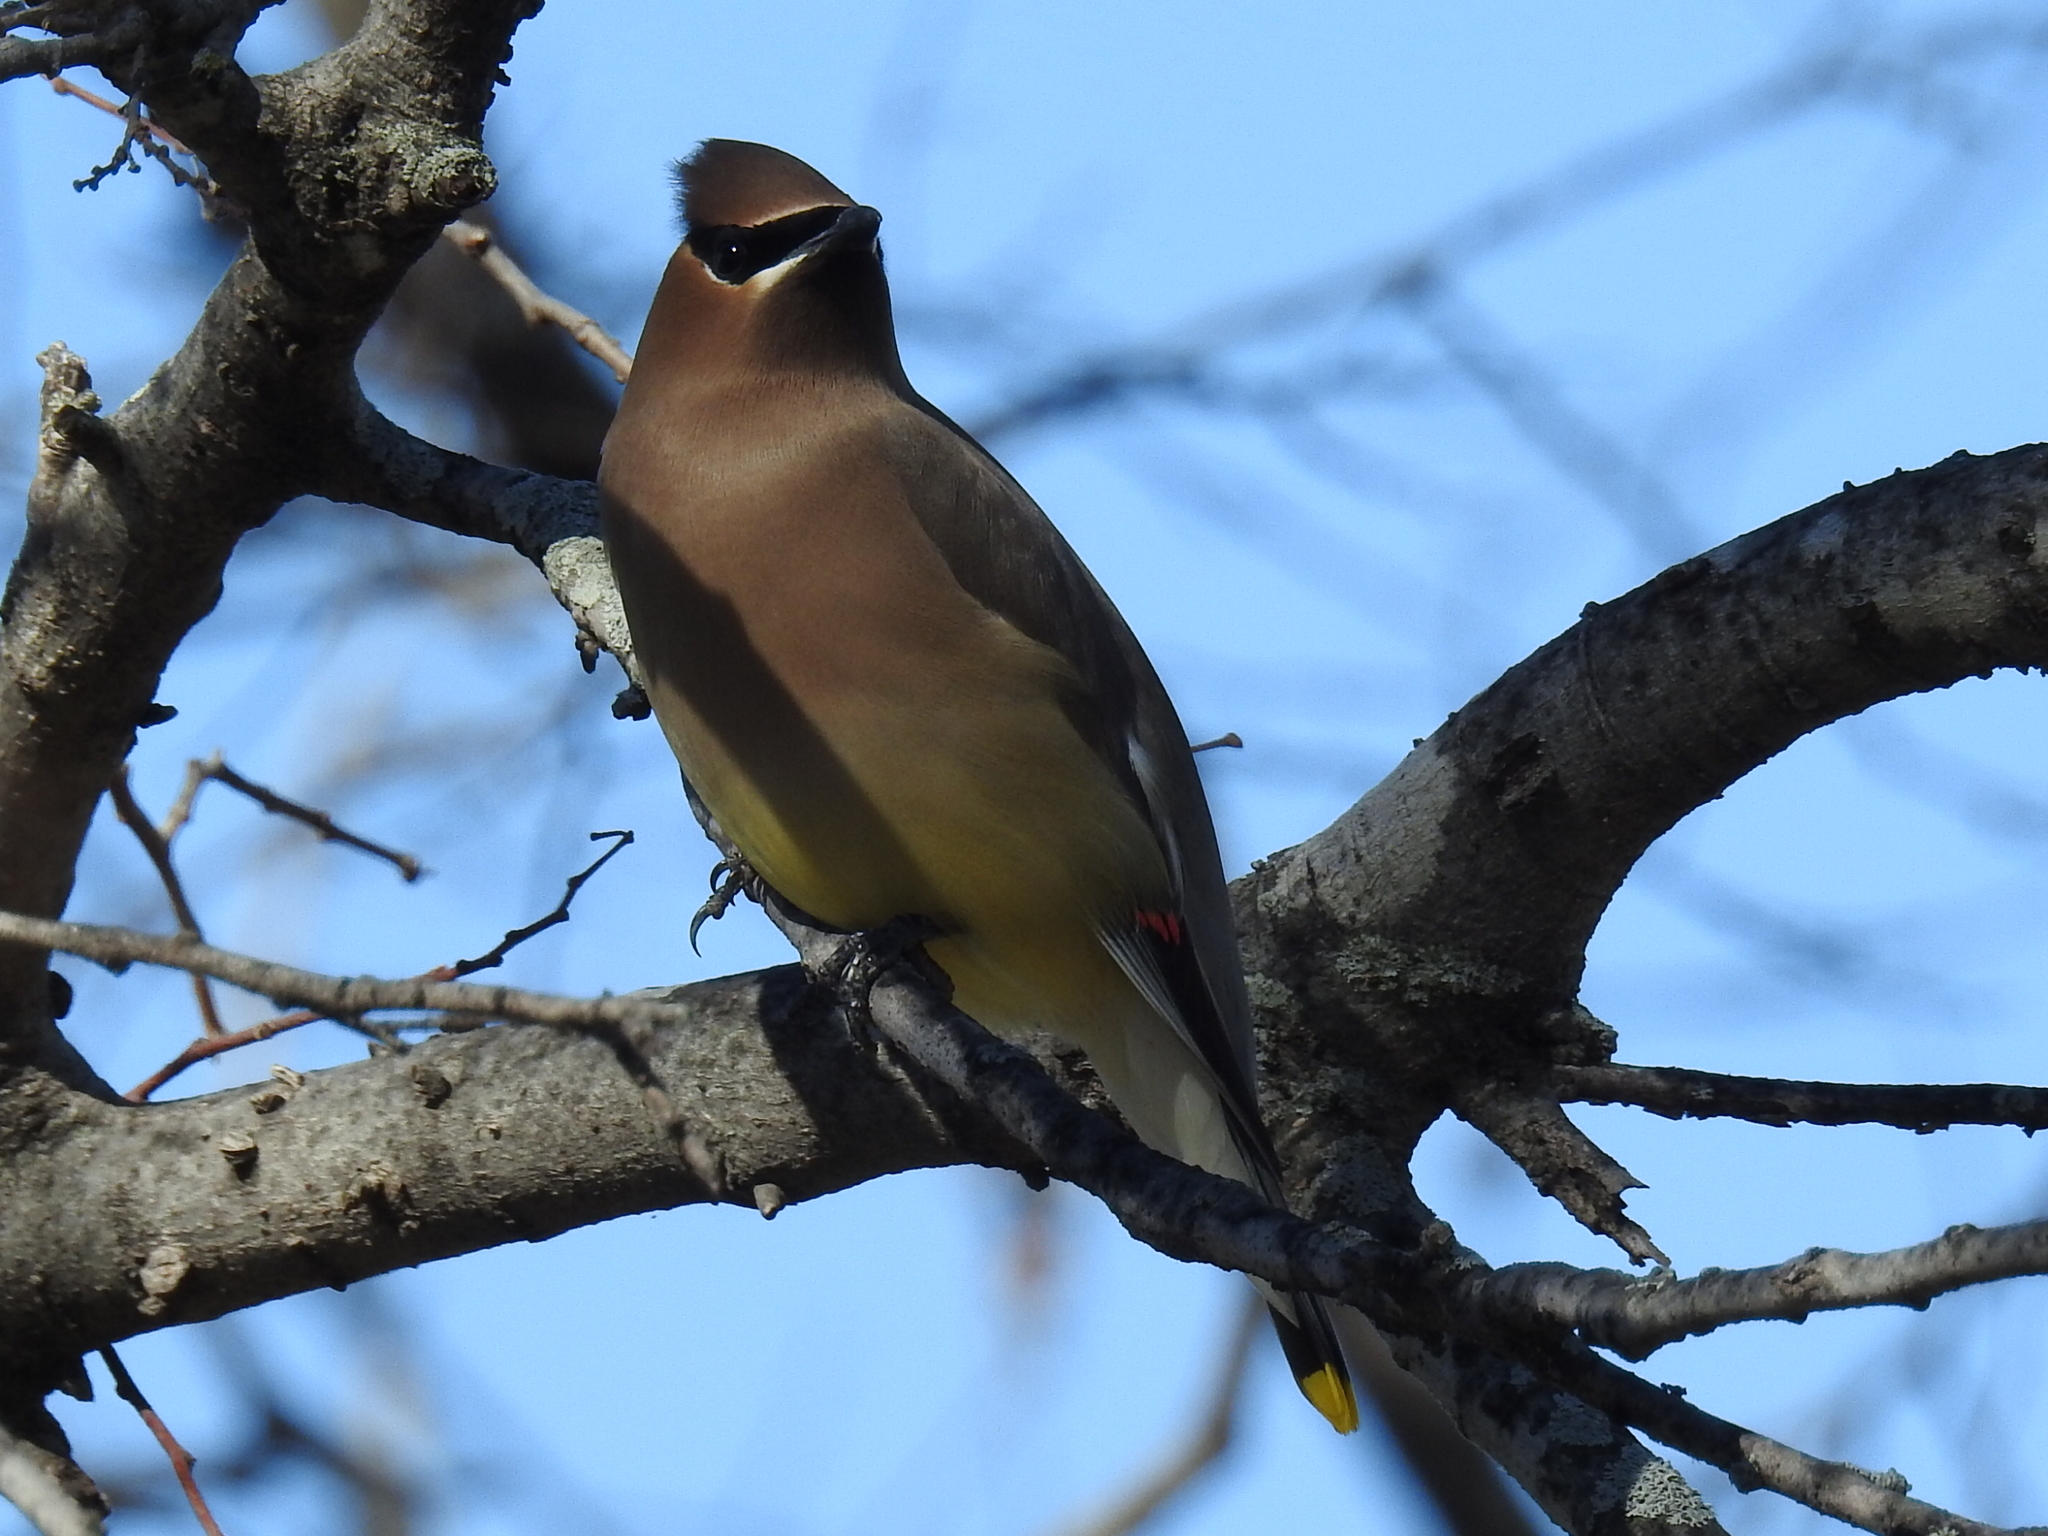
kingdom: Animalia
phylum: Chordata
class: Aves
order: Passeriformes
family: Bombycillidae
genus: Bombycilla
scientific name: Bombycilla cedrorum
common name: Cedar waxwing
